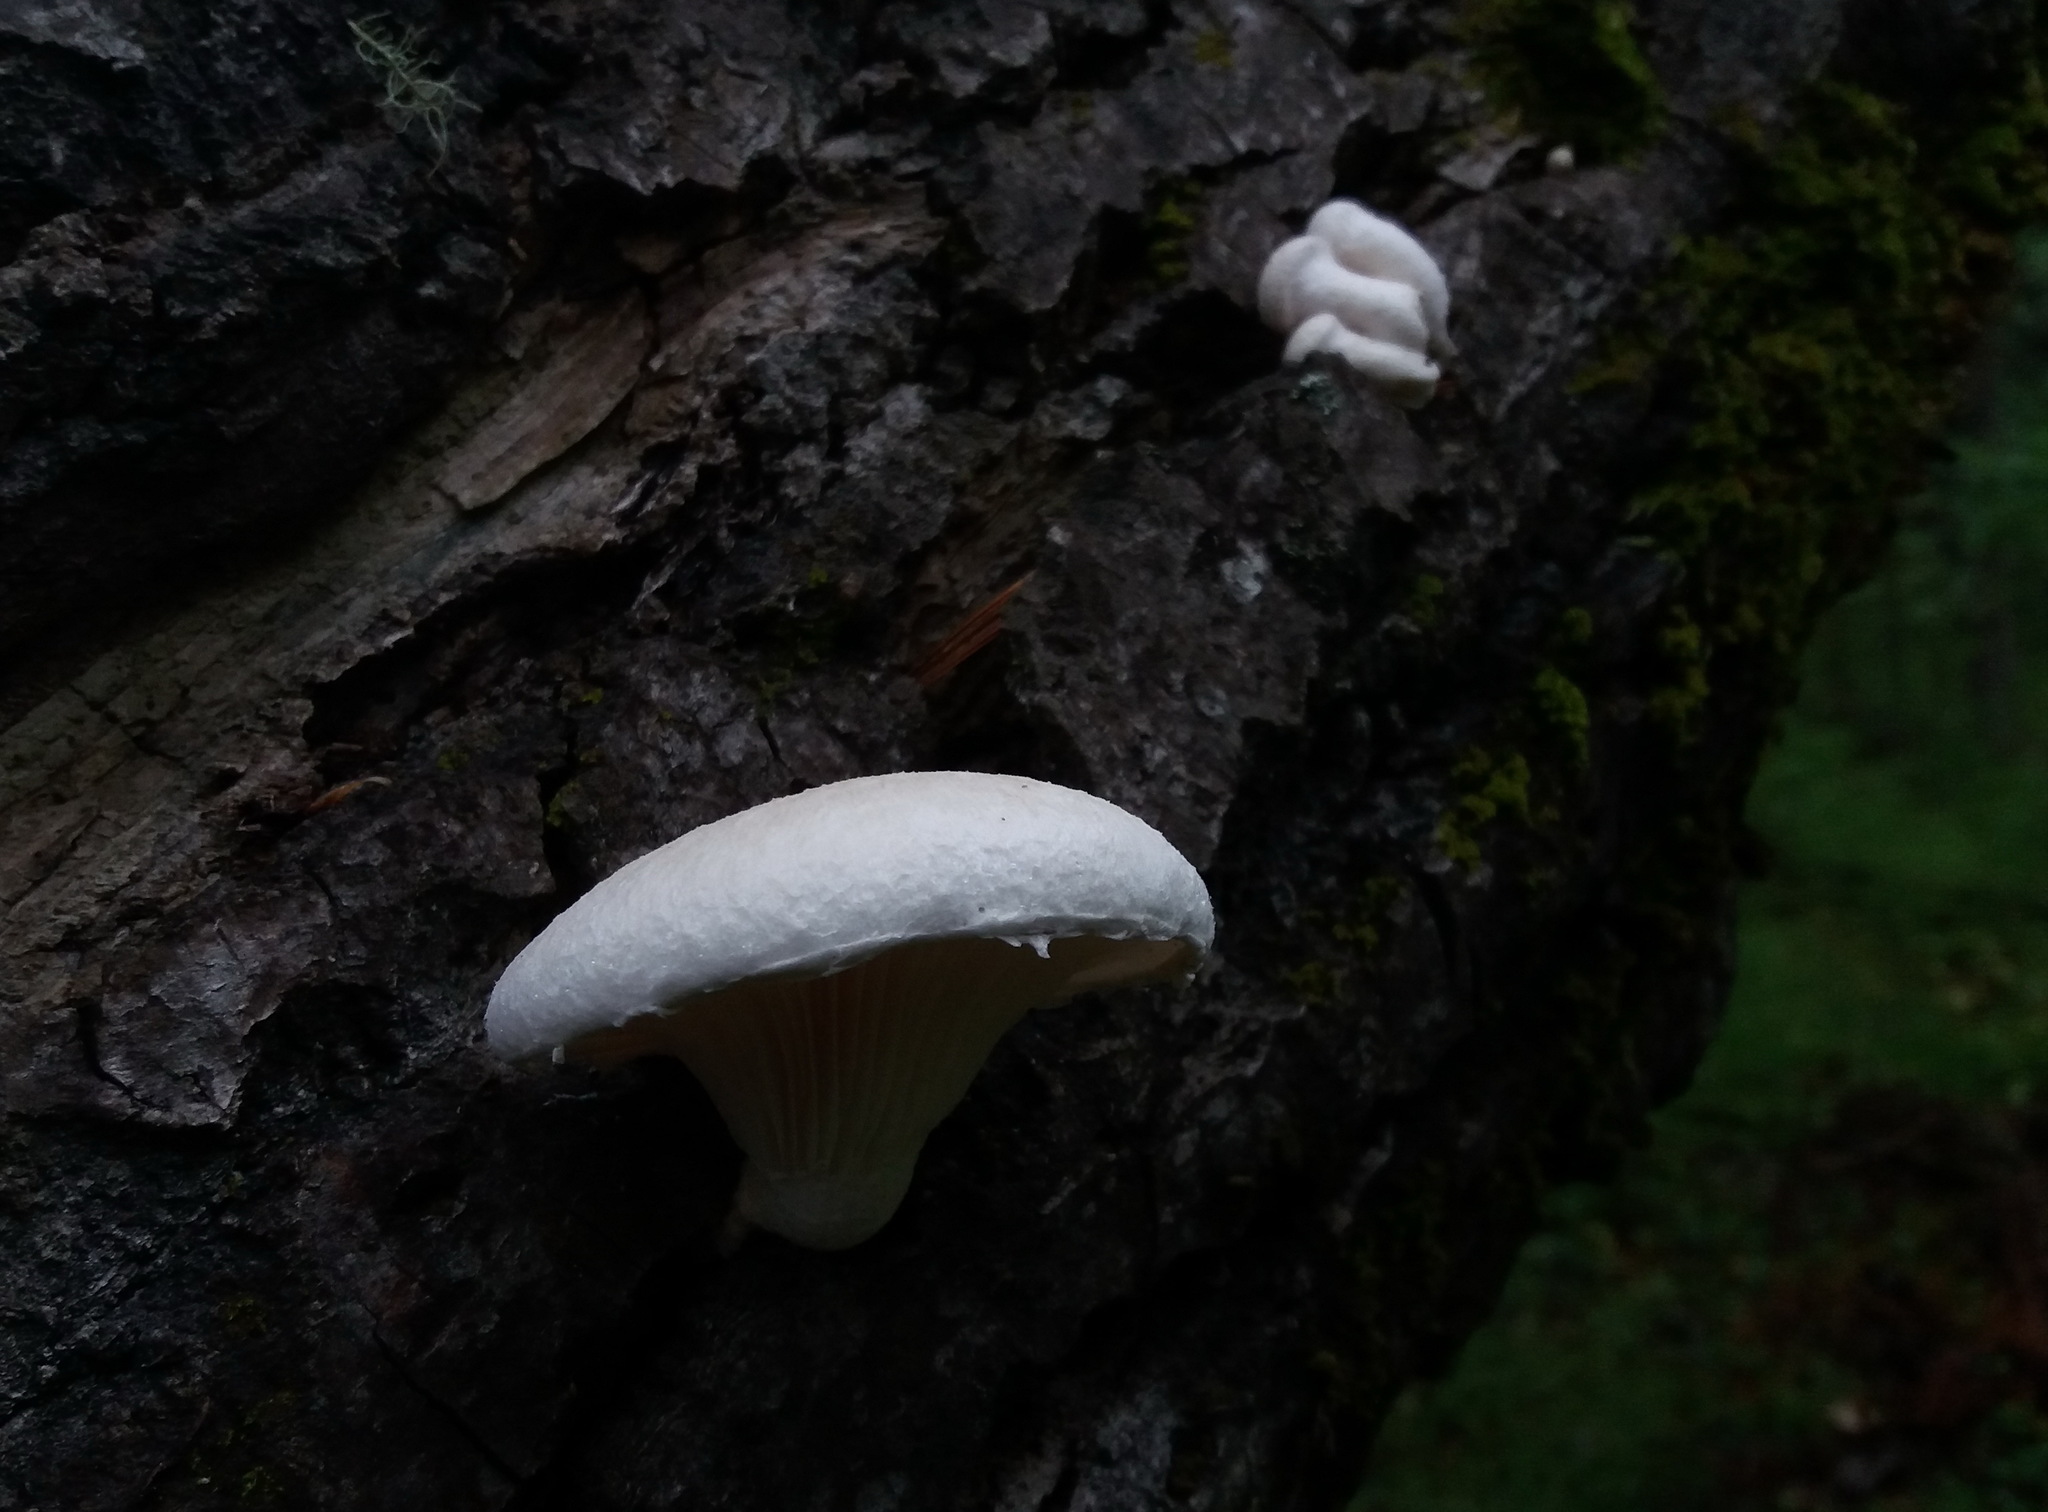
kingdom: Fungi
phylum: Basidiomycota
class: Agaricomycetes
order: Agaricales
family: Pleurotaceae
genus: Pleurotus
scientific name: Pleurotus dryinus
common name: Veiled oyster
